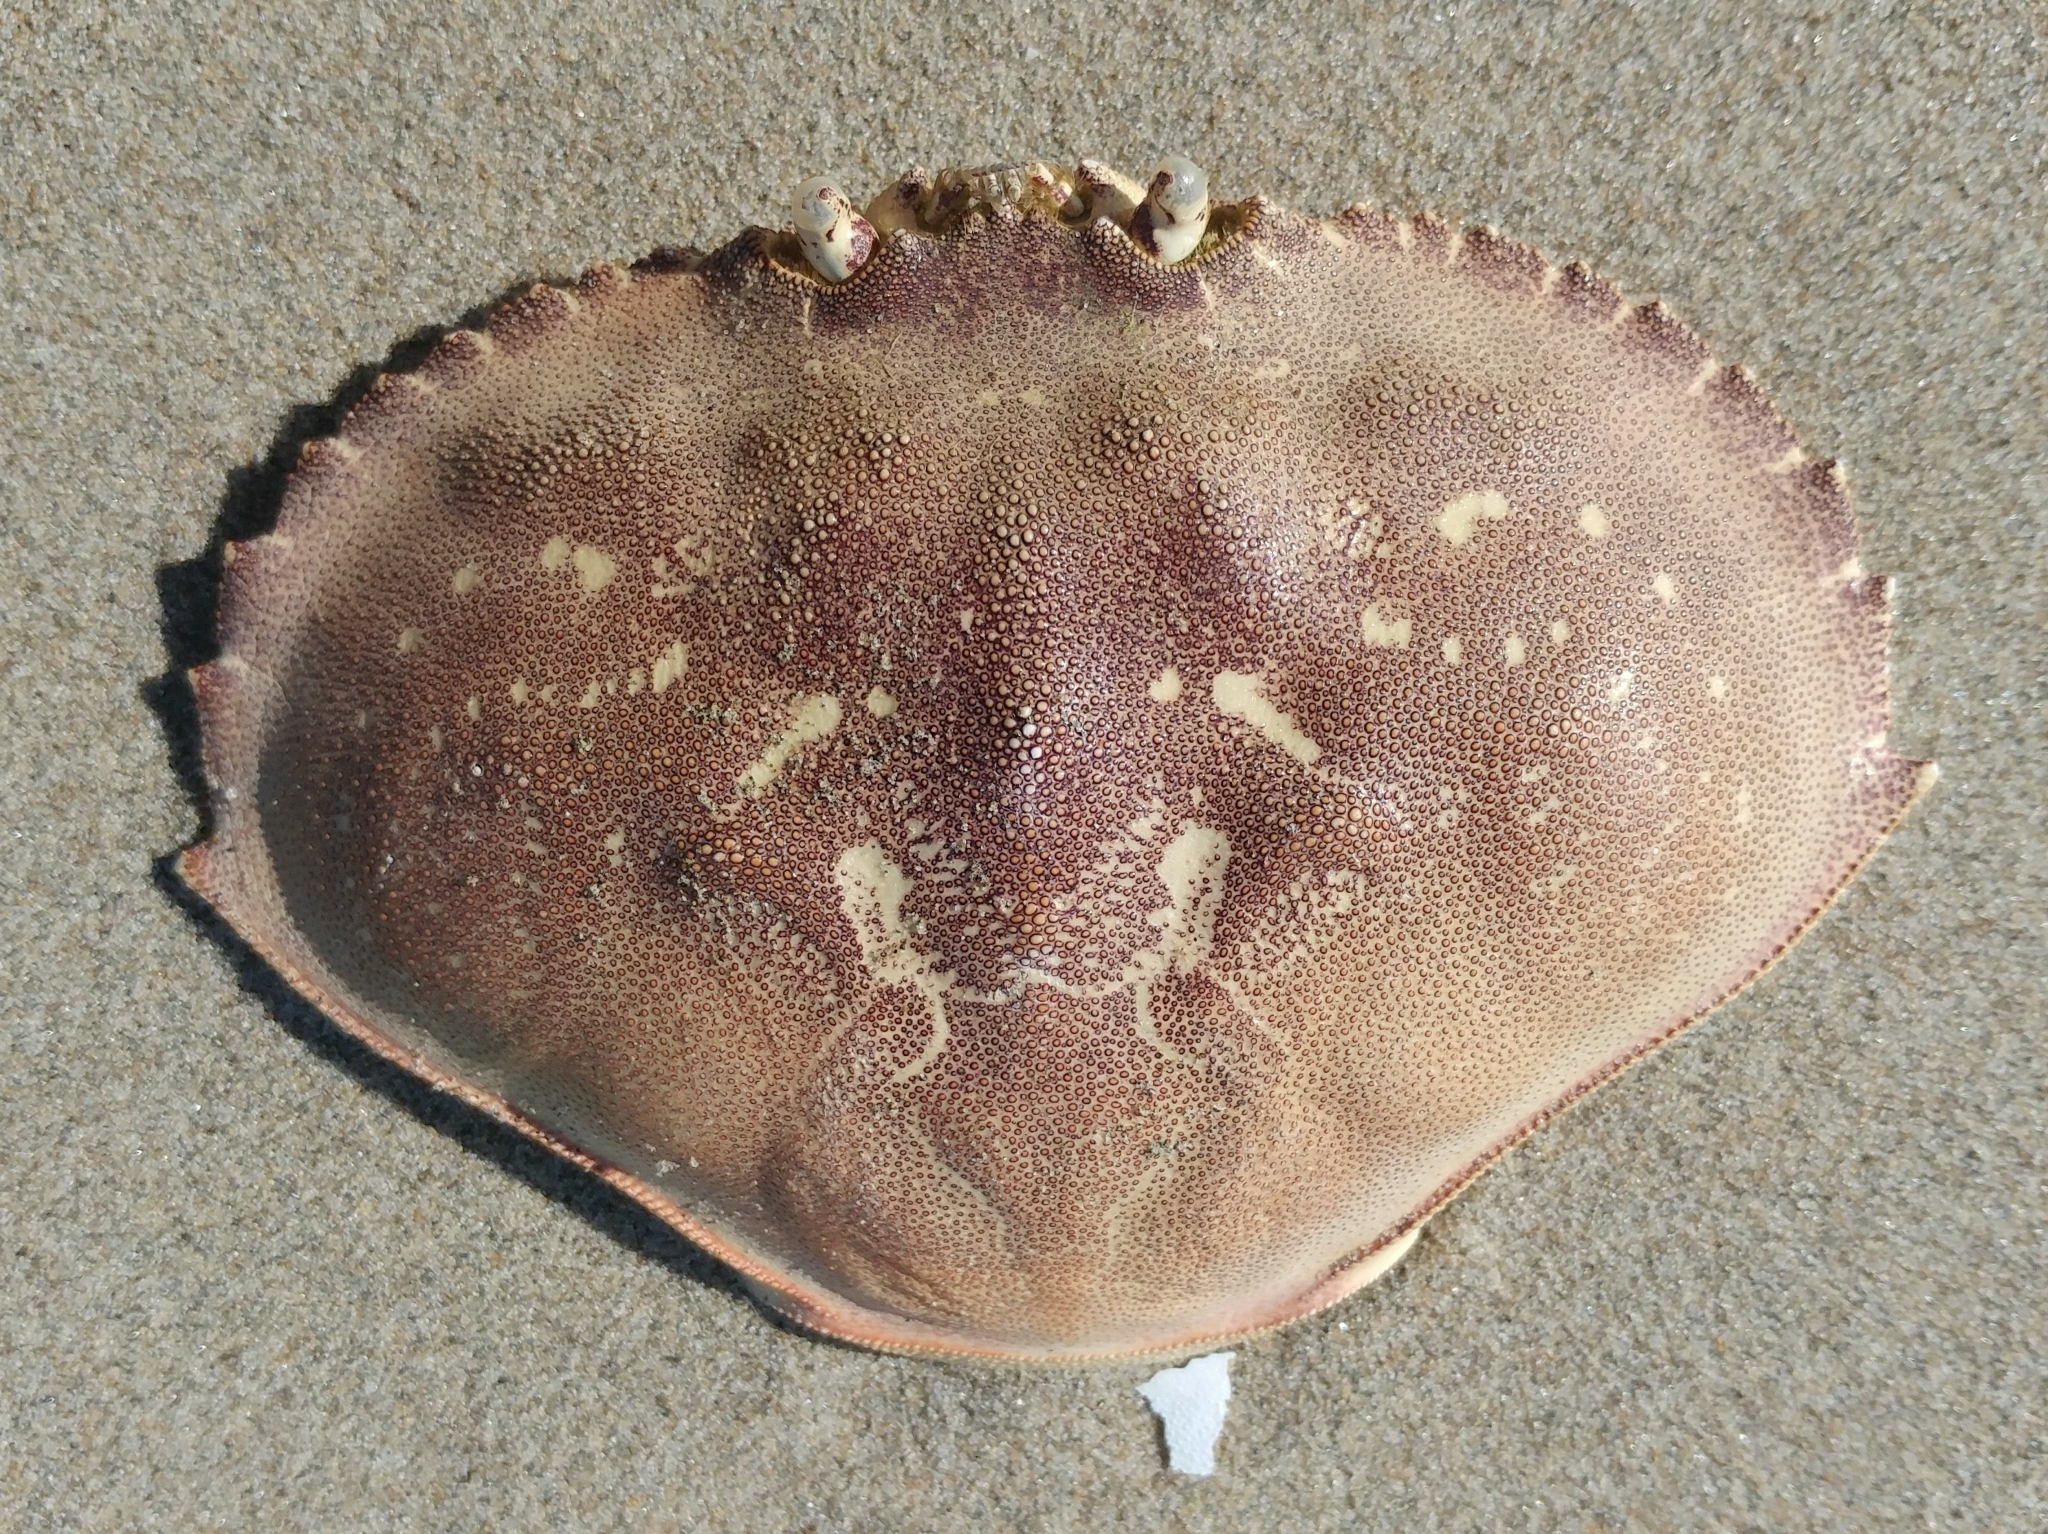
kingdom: Animalia
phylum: Arthropoda
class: Malacostraca
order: Decapoda
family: Cancridae
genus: Metacarcinus
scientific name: Metacarcinus magister
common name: Californian crab
